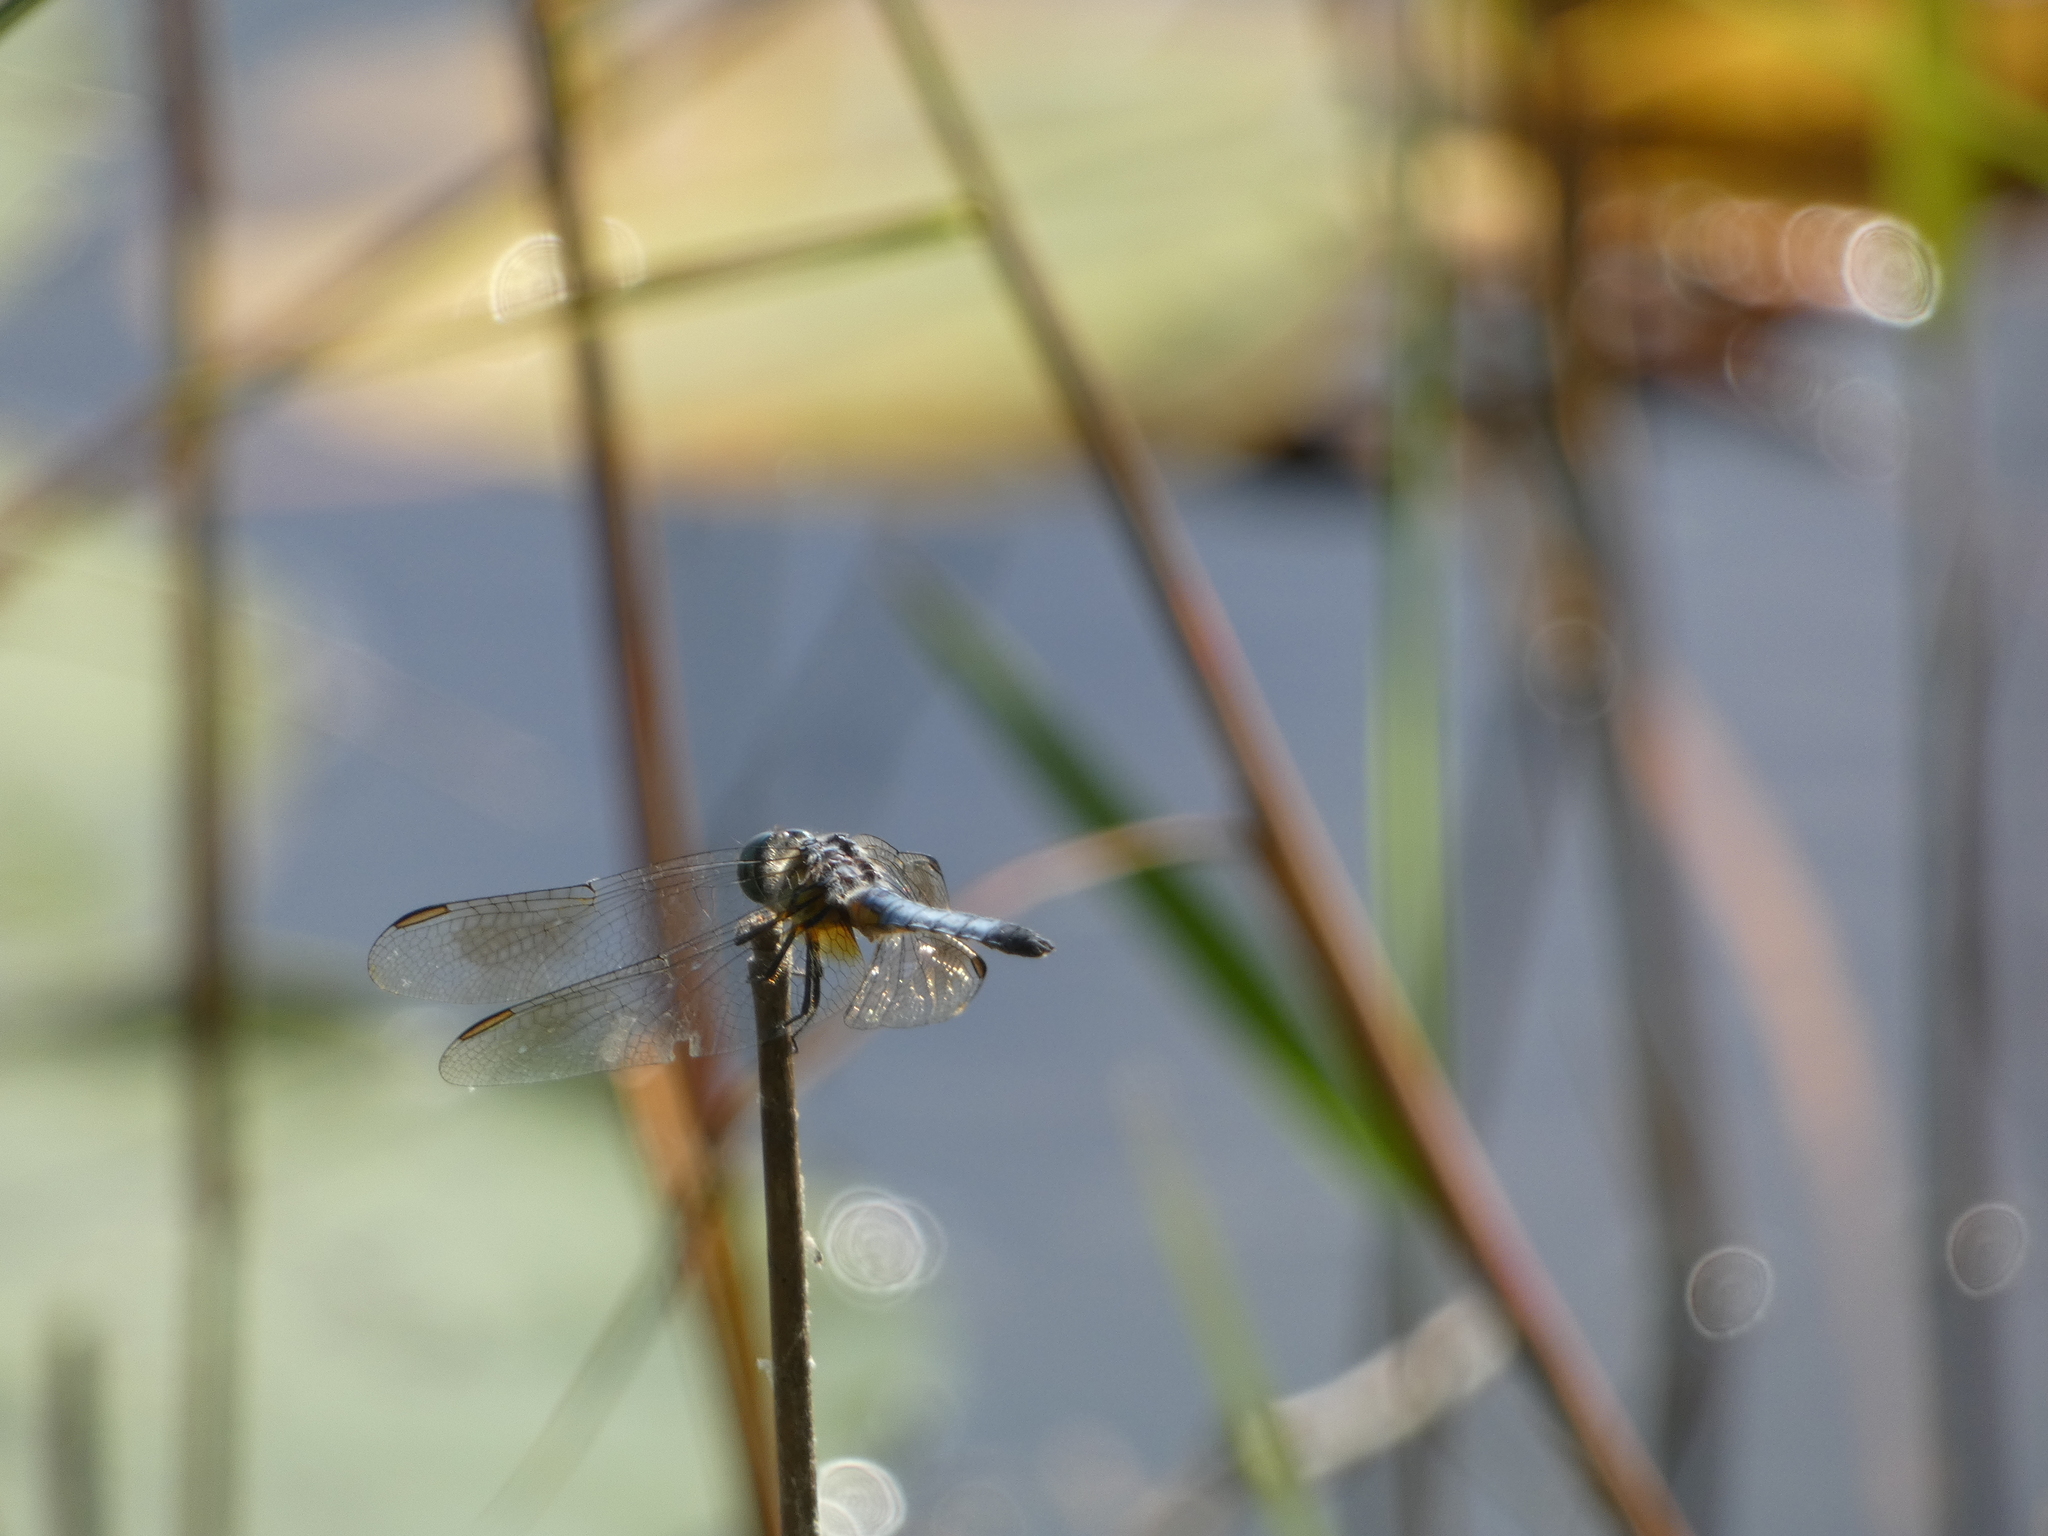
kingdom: Animalia
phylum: Arthropoda
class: Insecta
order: Odonata
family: Libellulidae
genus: Pachydiplax
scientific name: Pachydiplax longipennis
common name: Blue dasher
